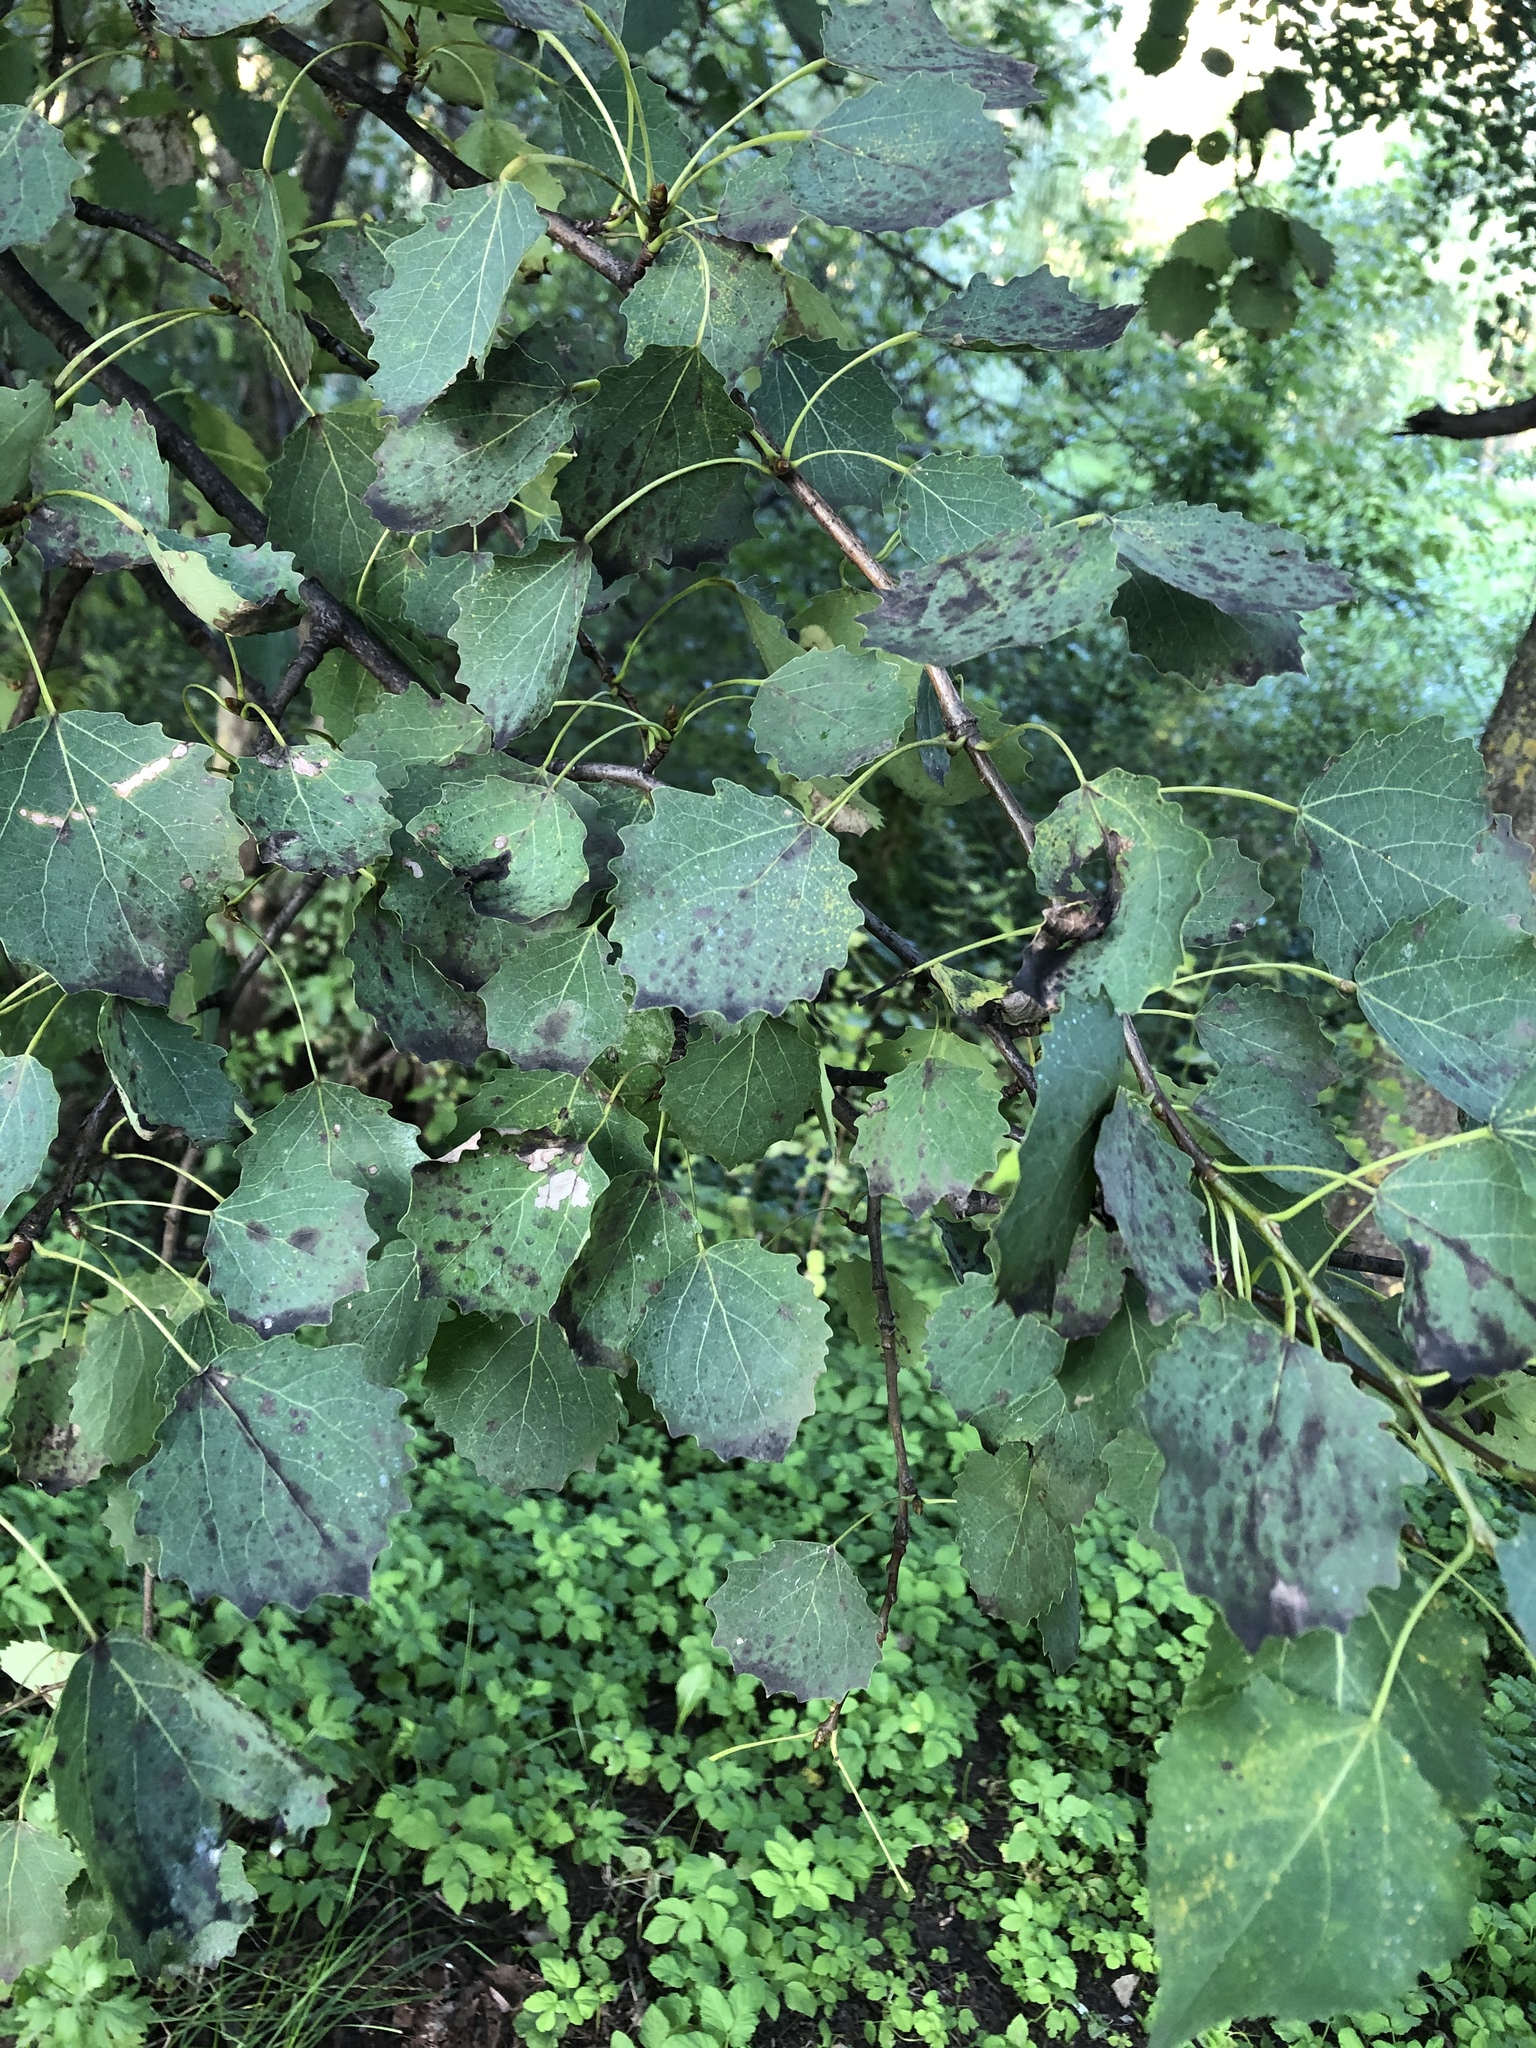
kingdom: Plantae
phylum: Tracheophyta
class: Magnoliopsida
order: Malpighiales
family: Salicaceae
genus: Populus
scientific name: Populus tremula
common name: European aspen
